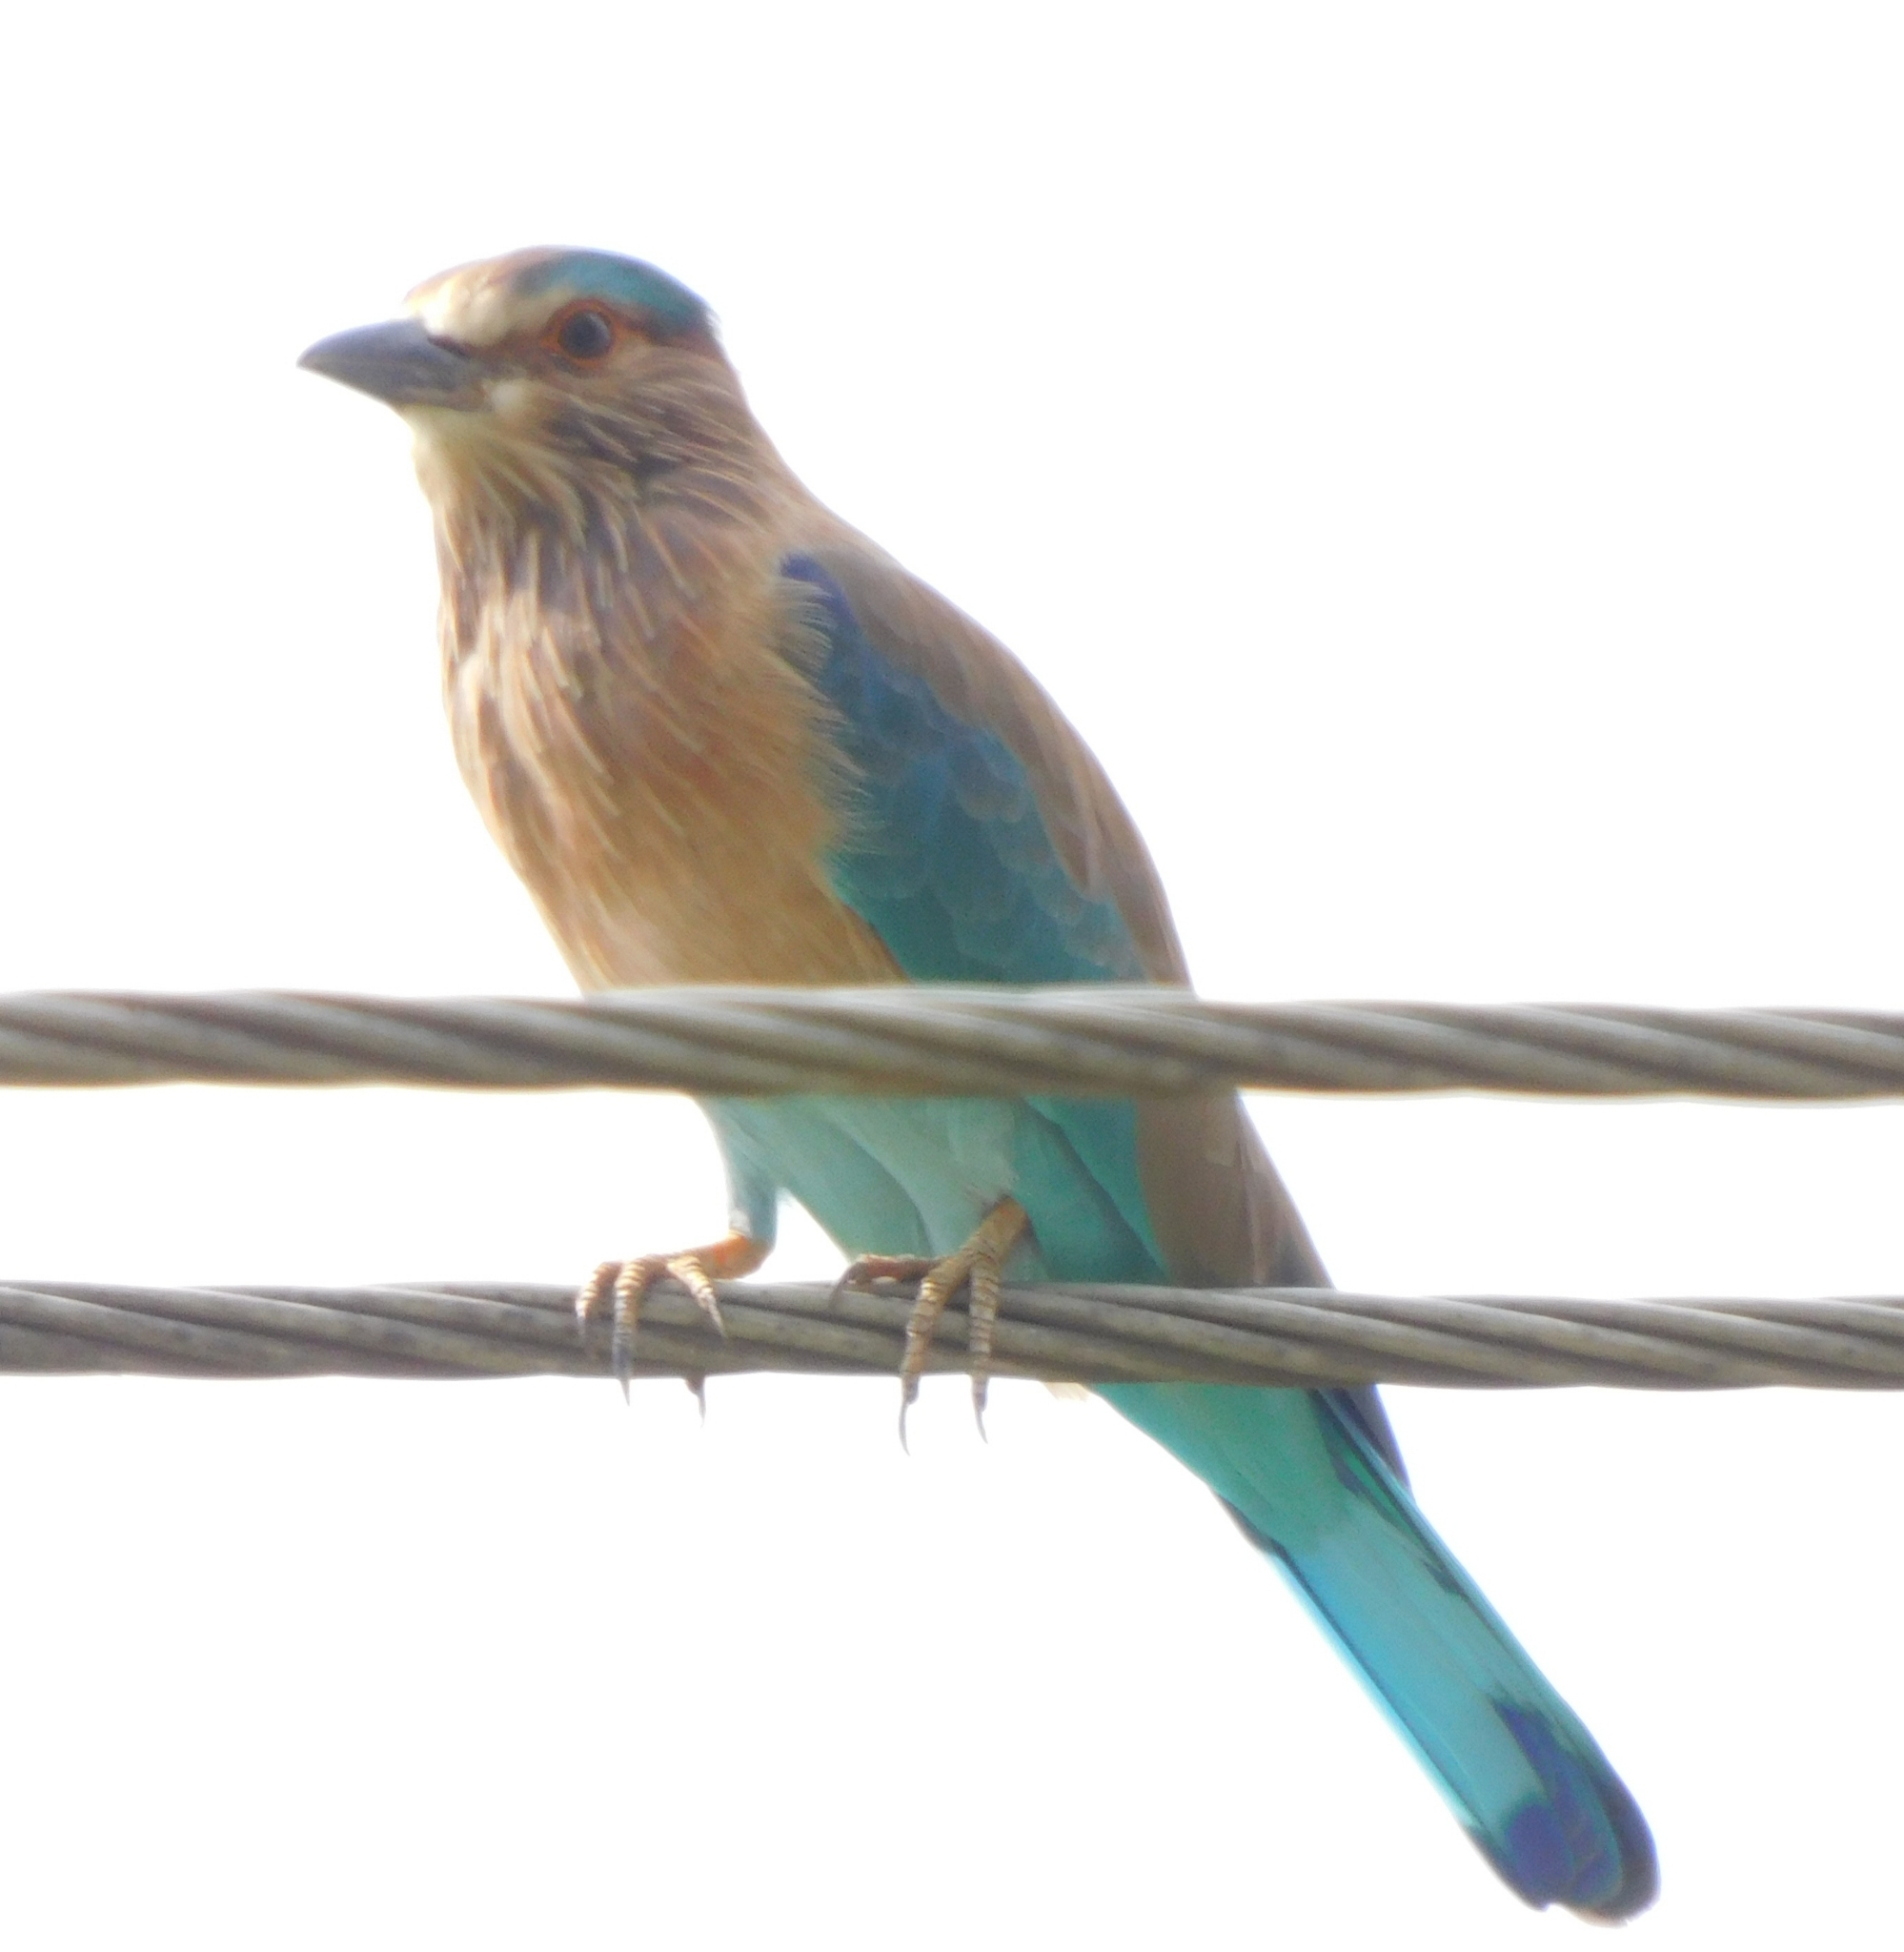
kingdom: Animalia
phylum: Chordata
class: Aves
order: Coraciiformes
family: Coraciidae
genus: Coracias
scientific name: Coracias benghalensis
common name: Indian roller
